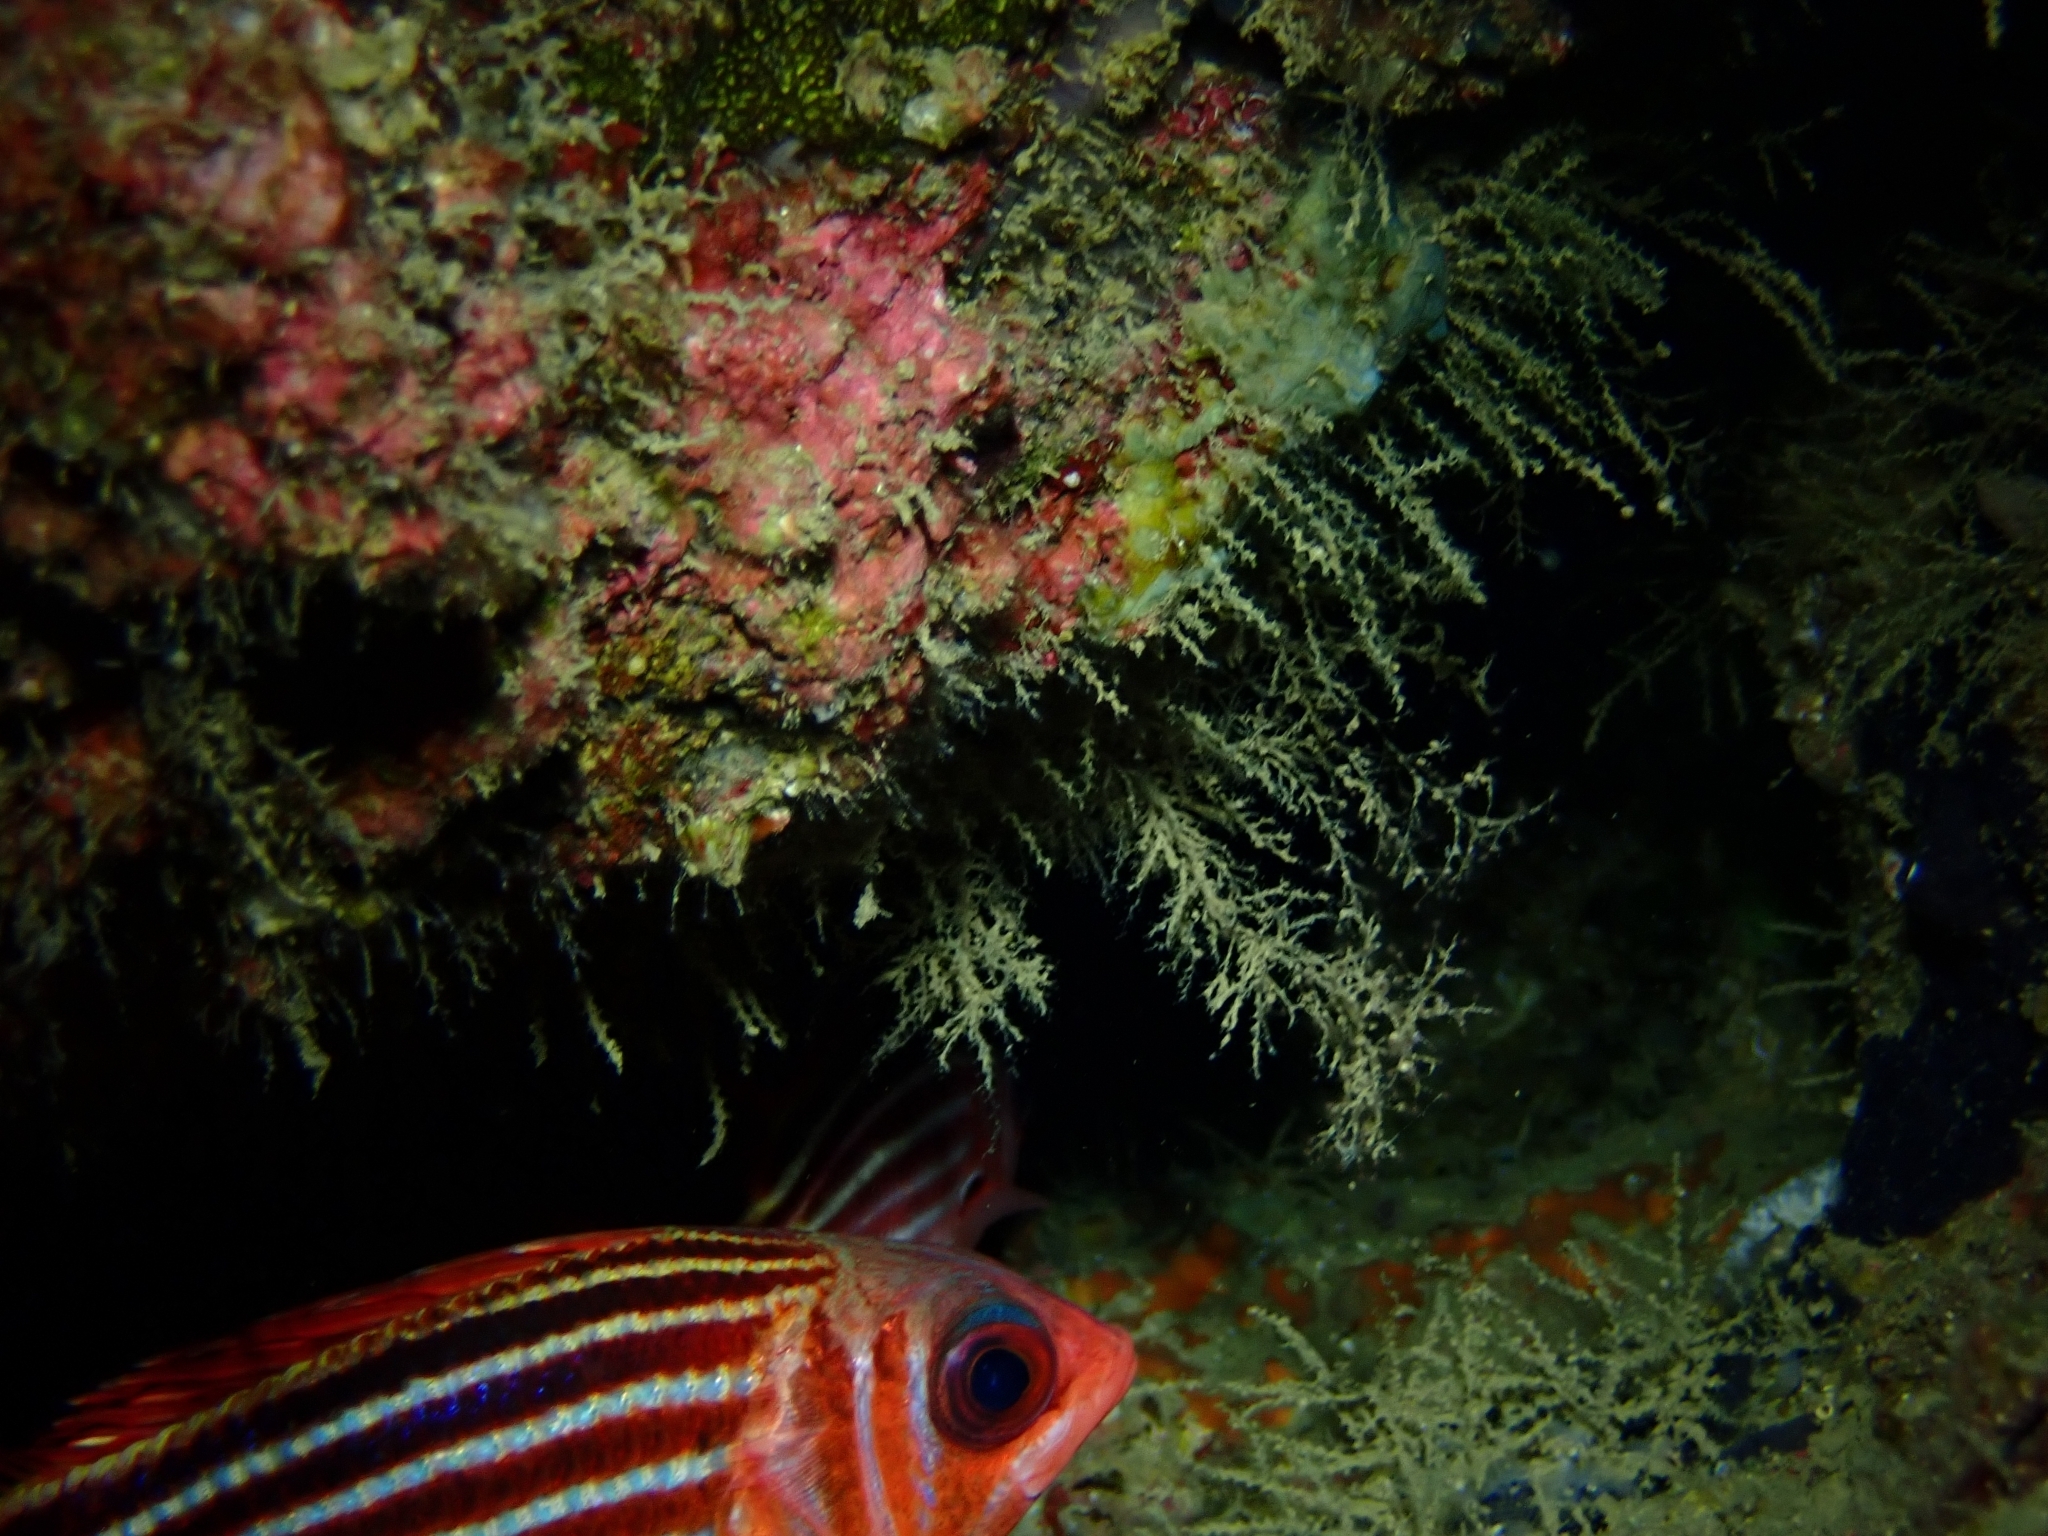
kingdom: Animalia
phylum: Chordata
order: Beryciformes
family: Holocentridae
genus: Sargocentron
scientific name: Sargocentron rubrum
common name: Redcoat
